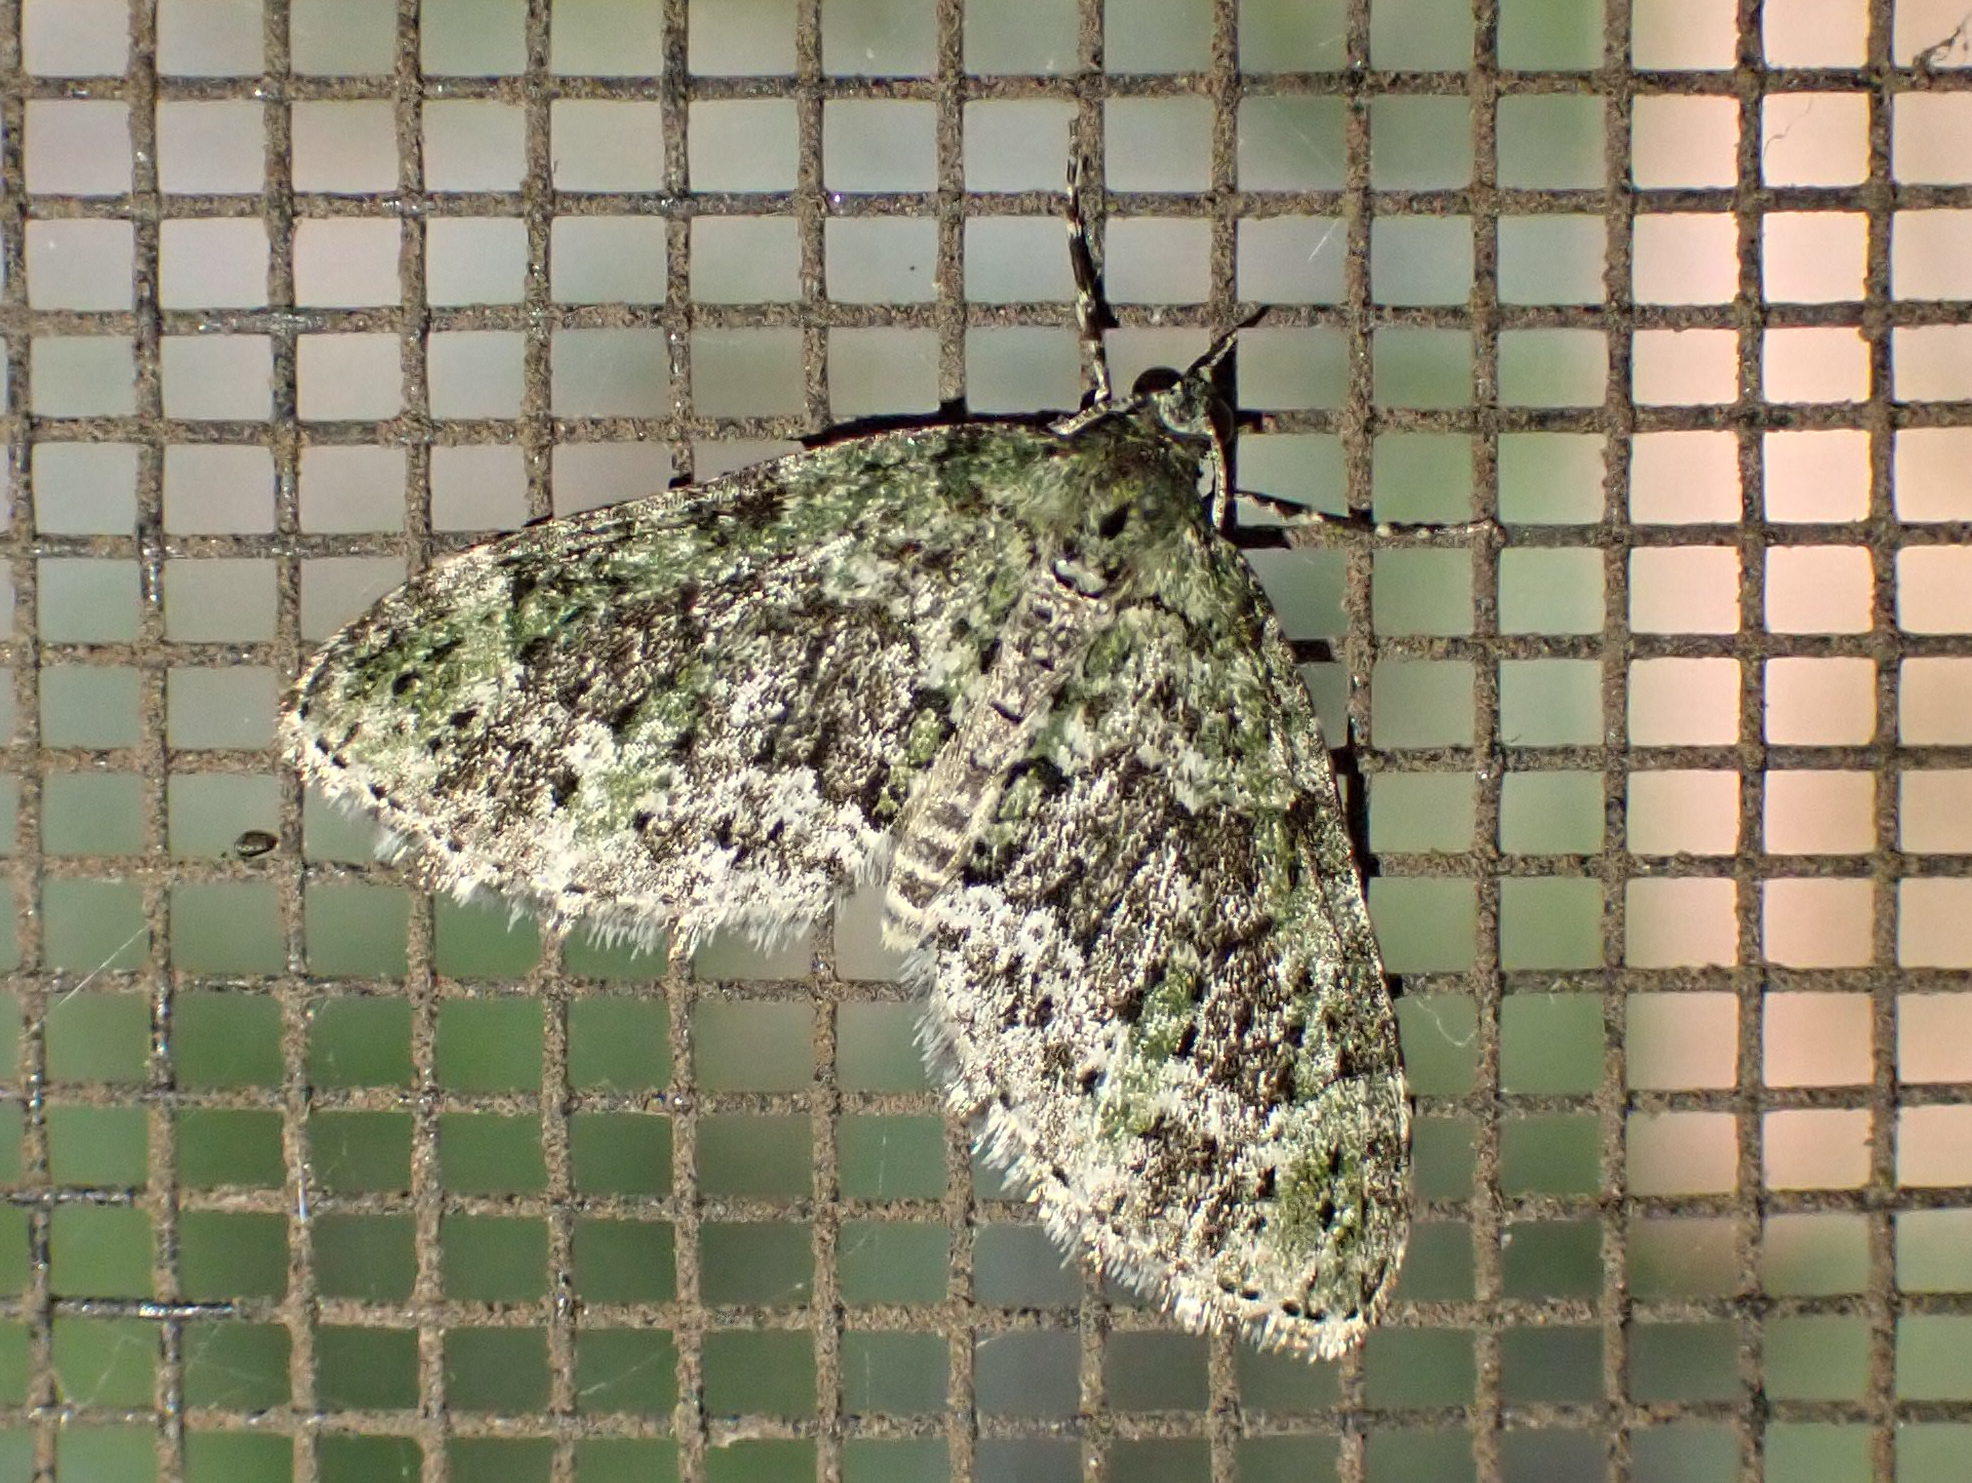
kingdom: Animalia
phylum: Arthropoda
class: Insecta
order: Lepidoptera
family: Geometridae
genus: Acasis
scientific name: Acasis viridata
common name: Olive-and-black carpet moth
